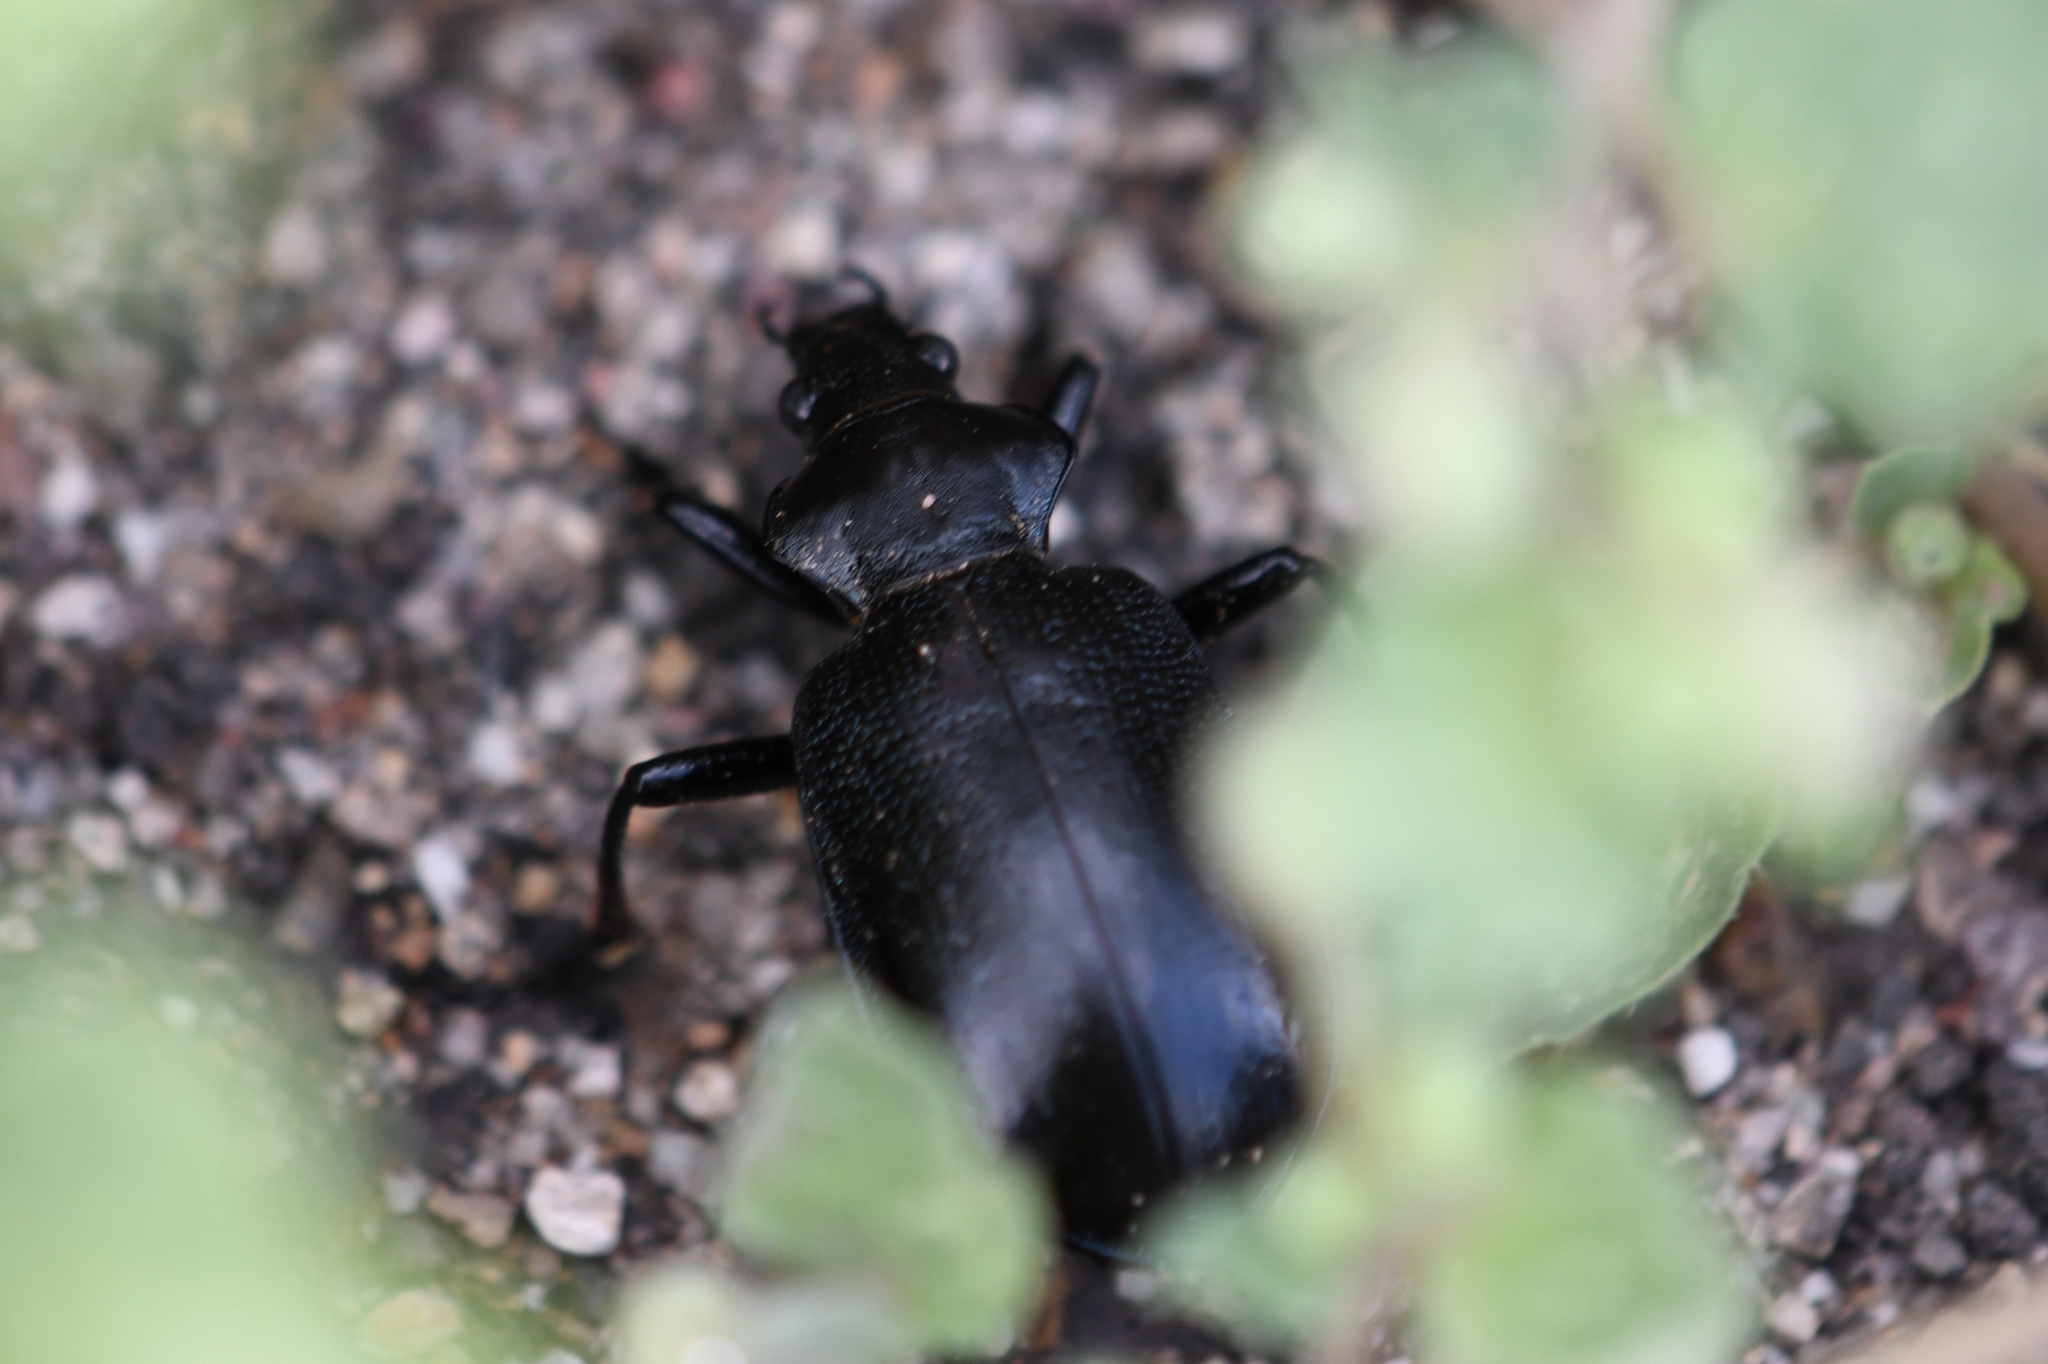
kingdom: Animalia
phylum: Arthropoda
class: Insecta
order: Coleoptera
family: Carabidae
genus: Calosoma
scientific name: Calosoma marginale
